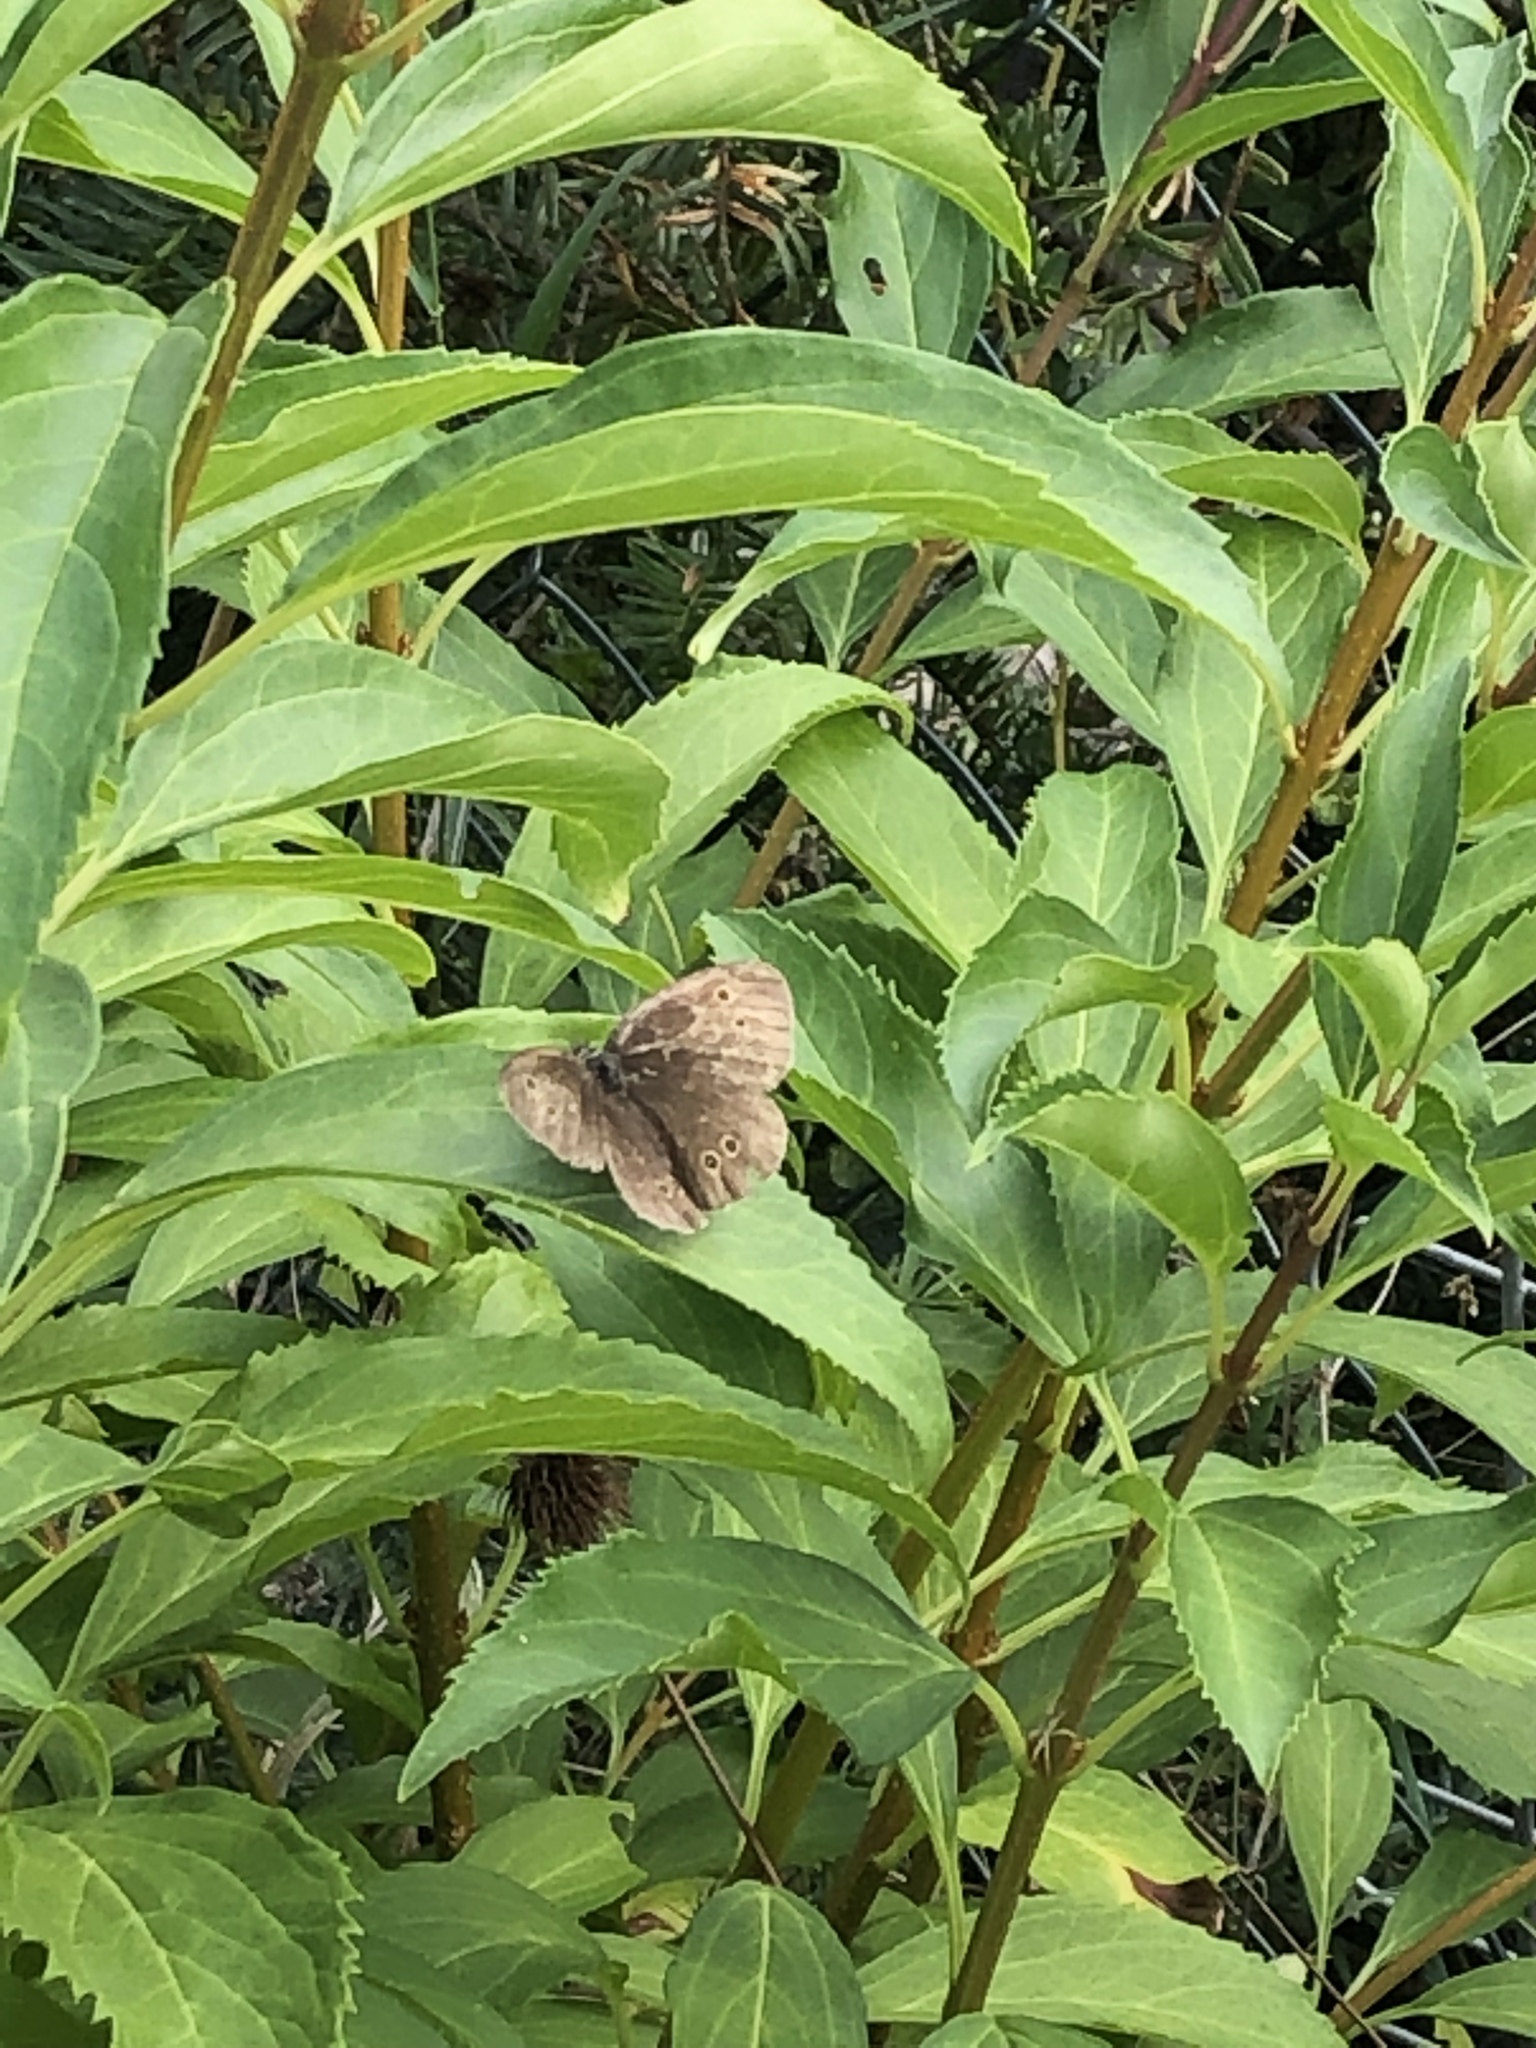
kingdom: Animalia
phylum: Arthropoda
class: Insecta
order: Lepidoptera
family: Nymphalidae
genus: Aphantopus
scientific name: Aphantopus hyperantus
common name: Ringlet
